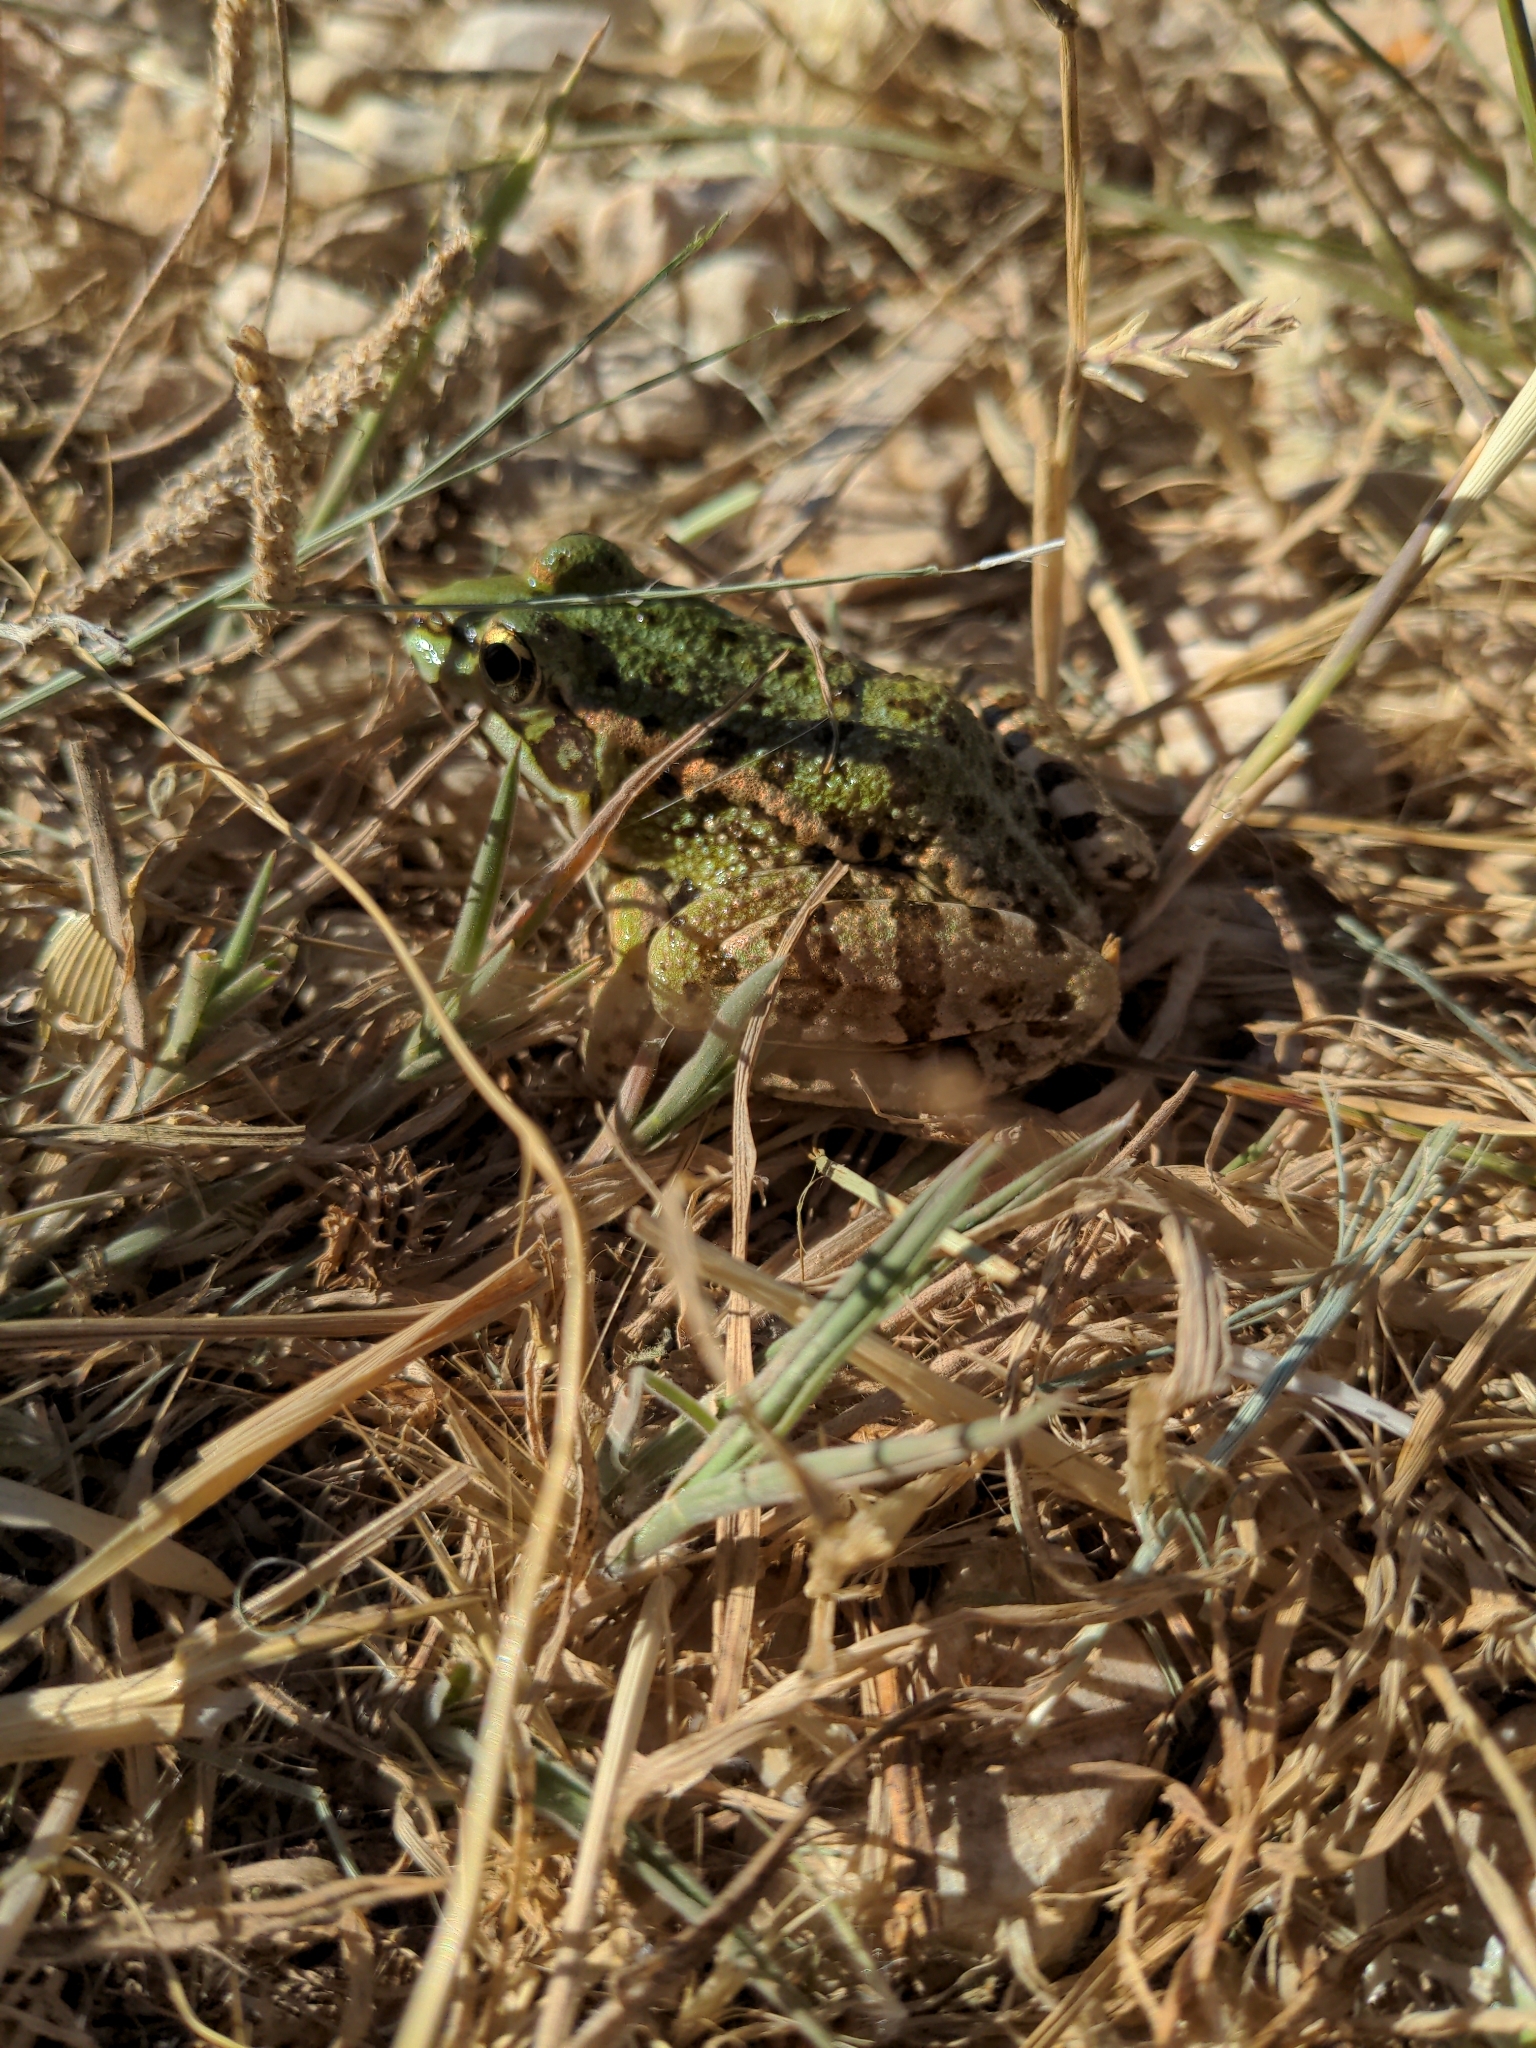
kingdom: Animalia
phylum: Chordata
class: Amphibia
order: Anura
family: Ranidae
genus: Pelophylax
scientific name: Pelophylax perezi
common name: Perez's frog
